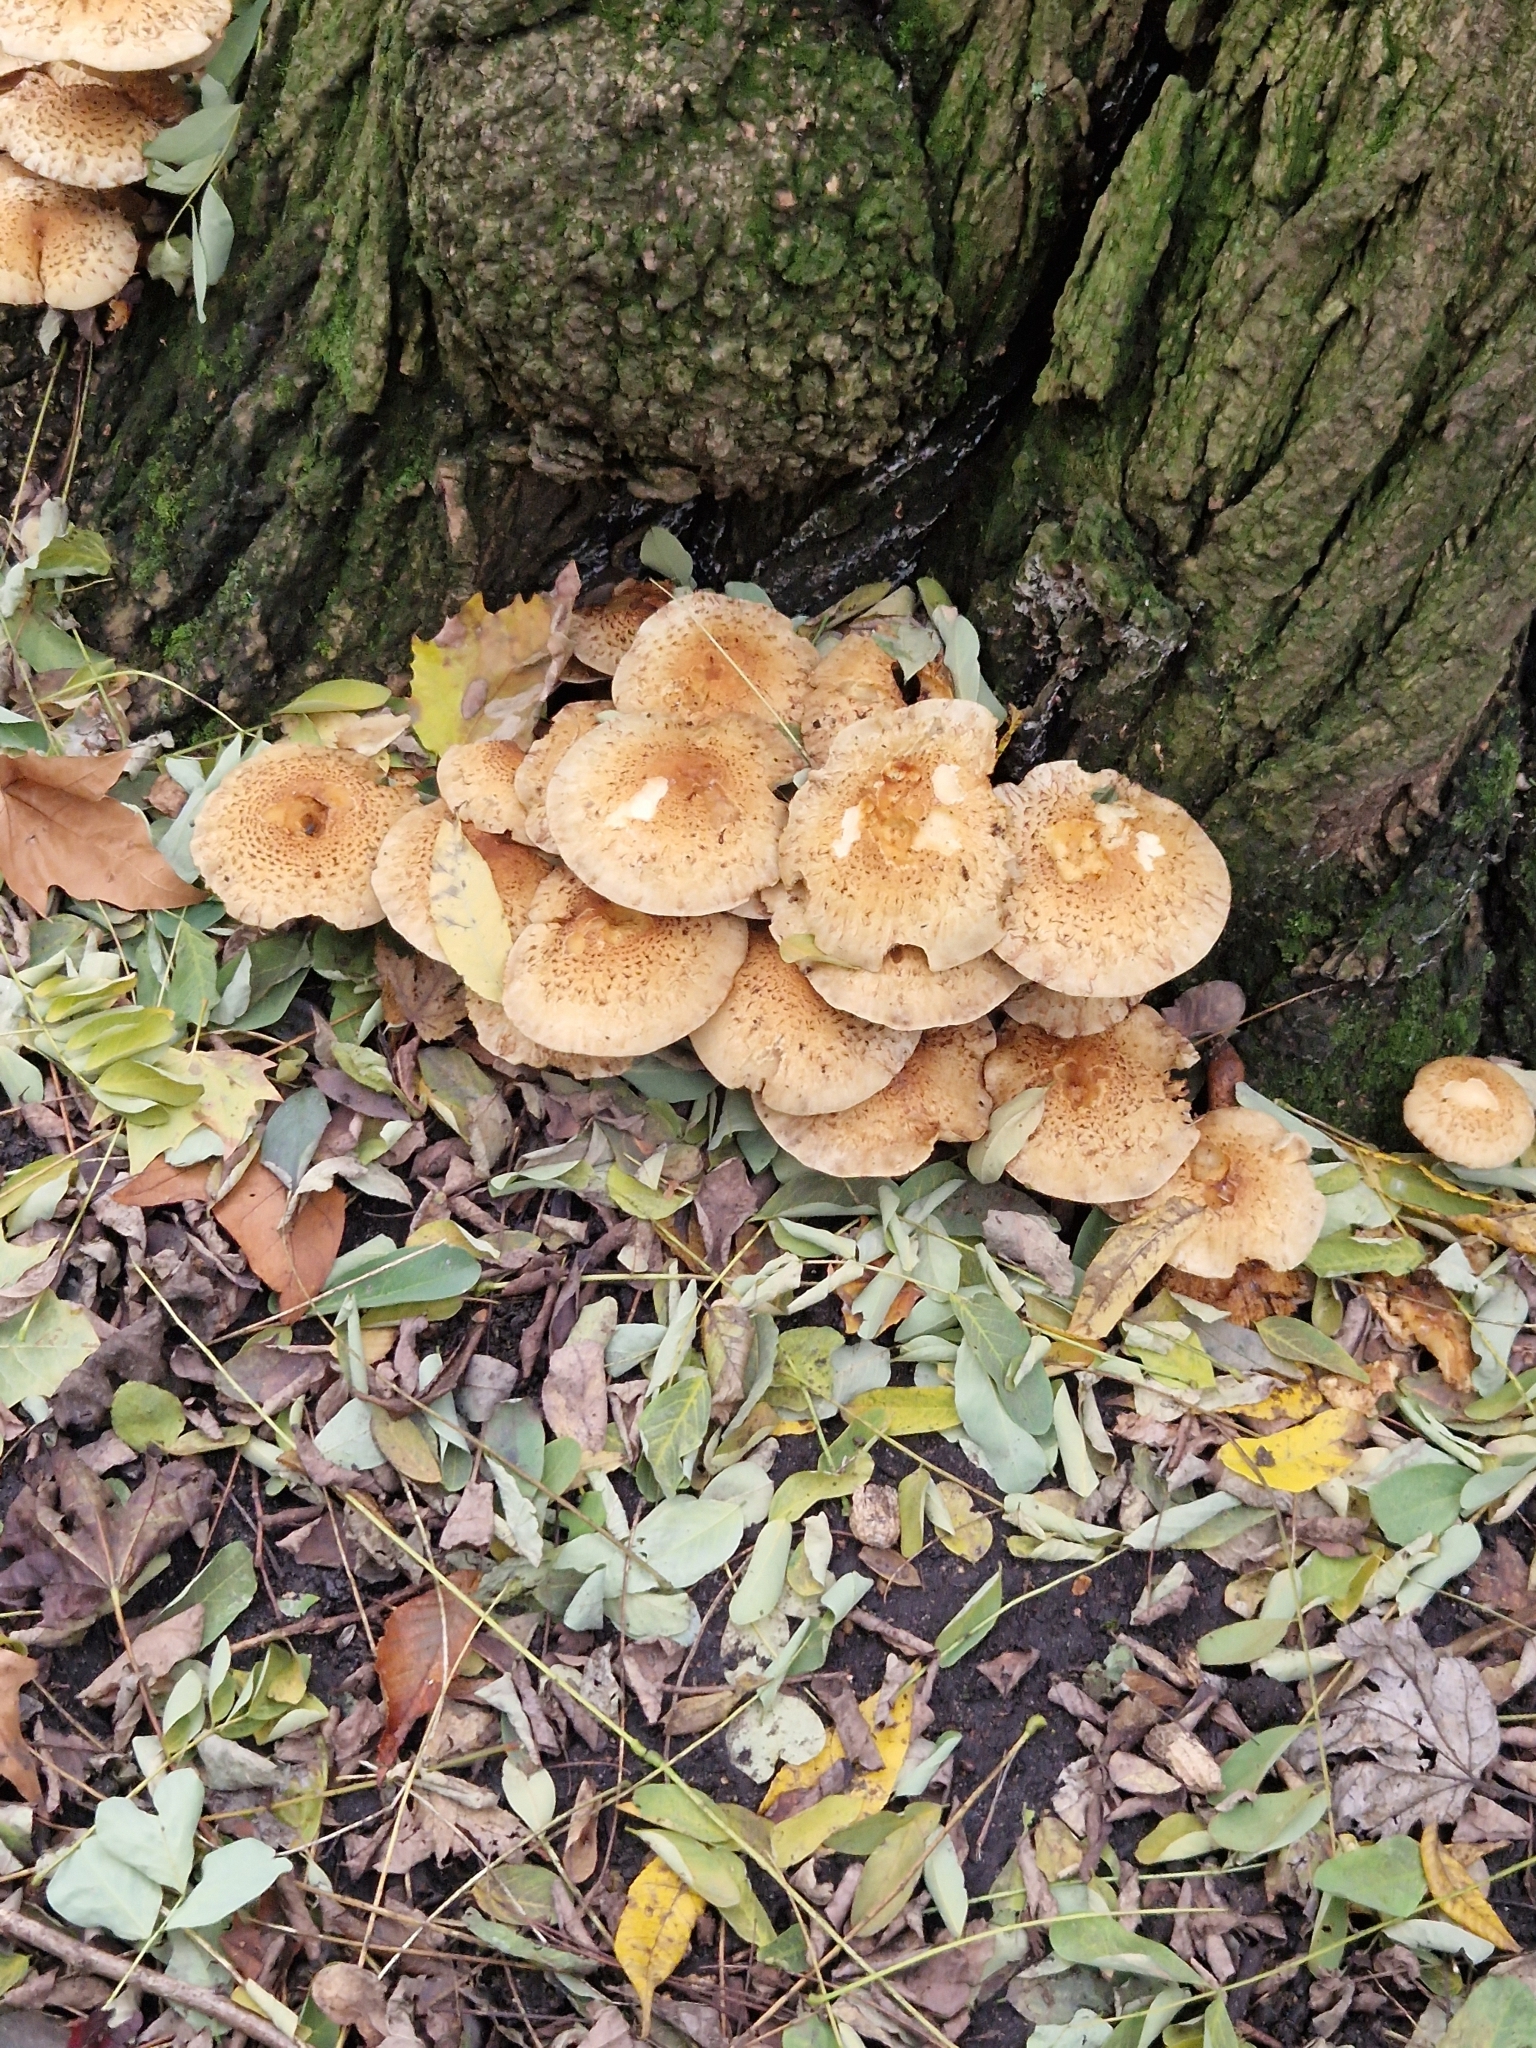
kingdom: Fungi
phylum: Basidiomycota
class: Agaricomycetes
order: Agaricales
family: Strophariaceae
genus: Pholiota
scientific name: Pholiota squarrosa
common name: Shaggy pholiota
